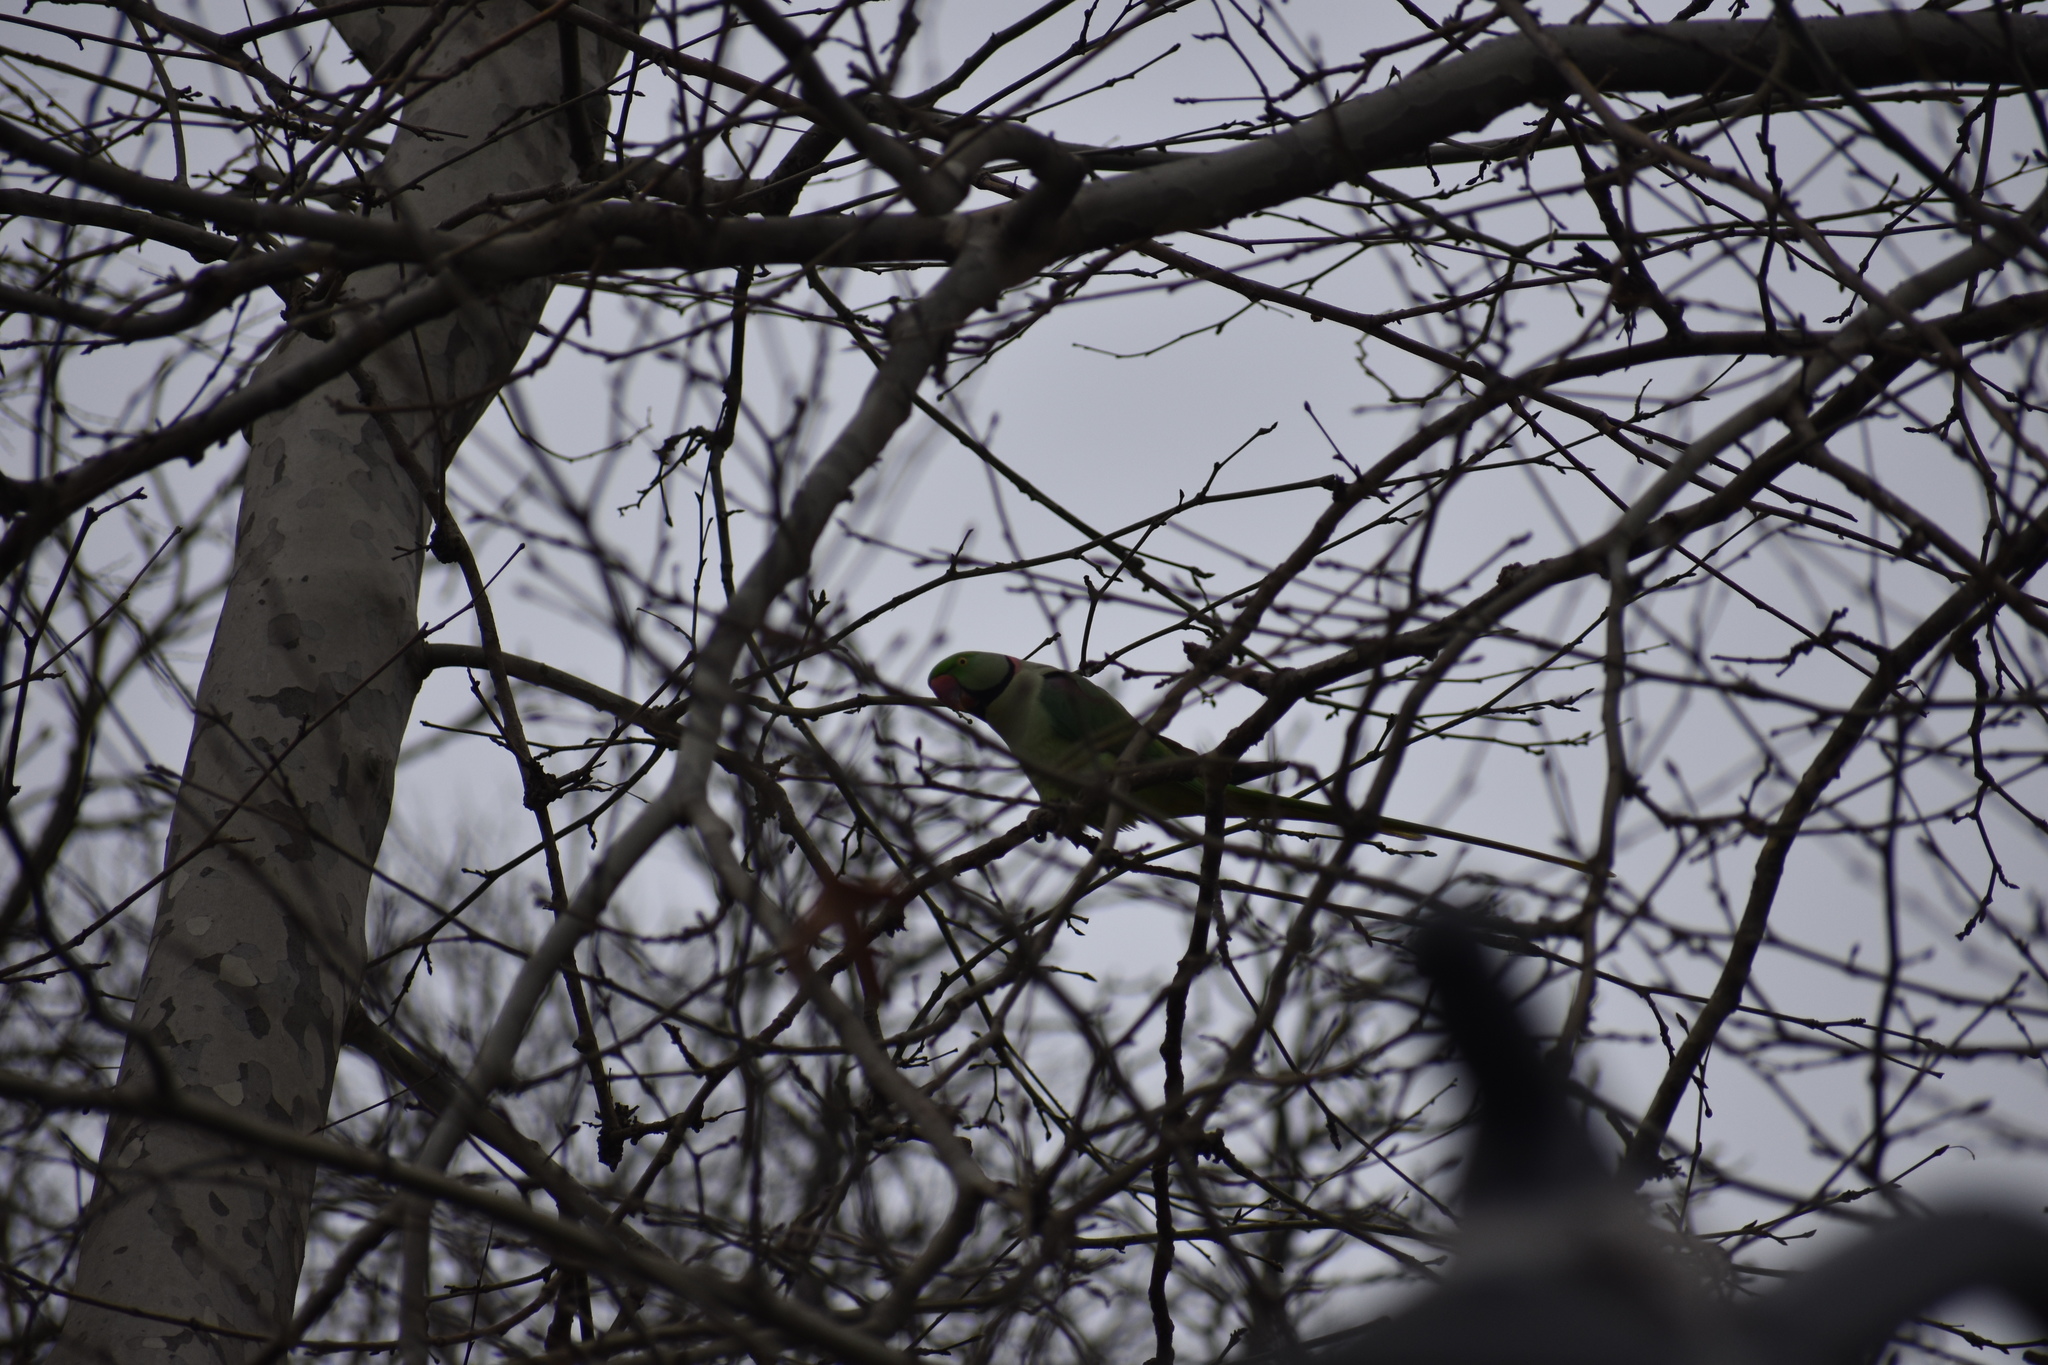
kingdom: Animalia
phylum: Chordata
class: Aves
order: Psittaciformes
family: Psittacidae
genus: Psittacula
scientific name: Psittacula eupatria
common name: Alexandrine parakeet
